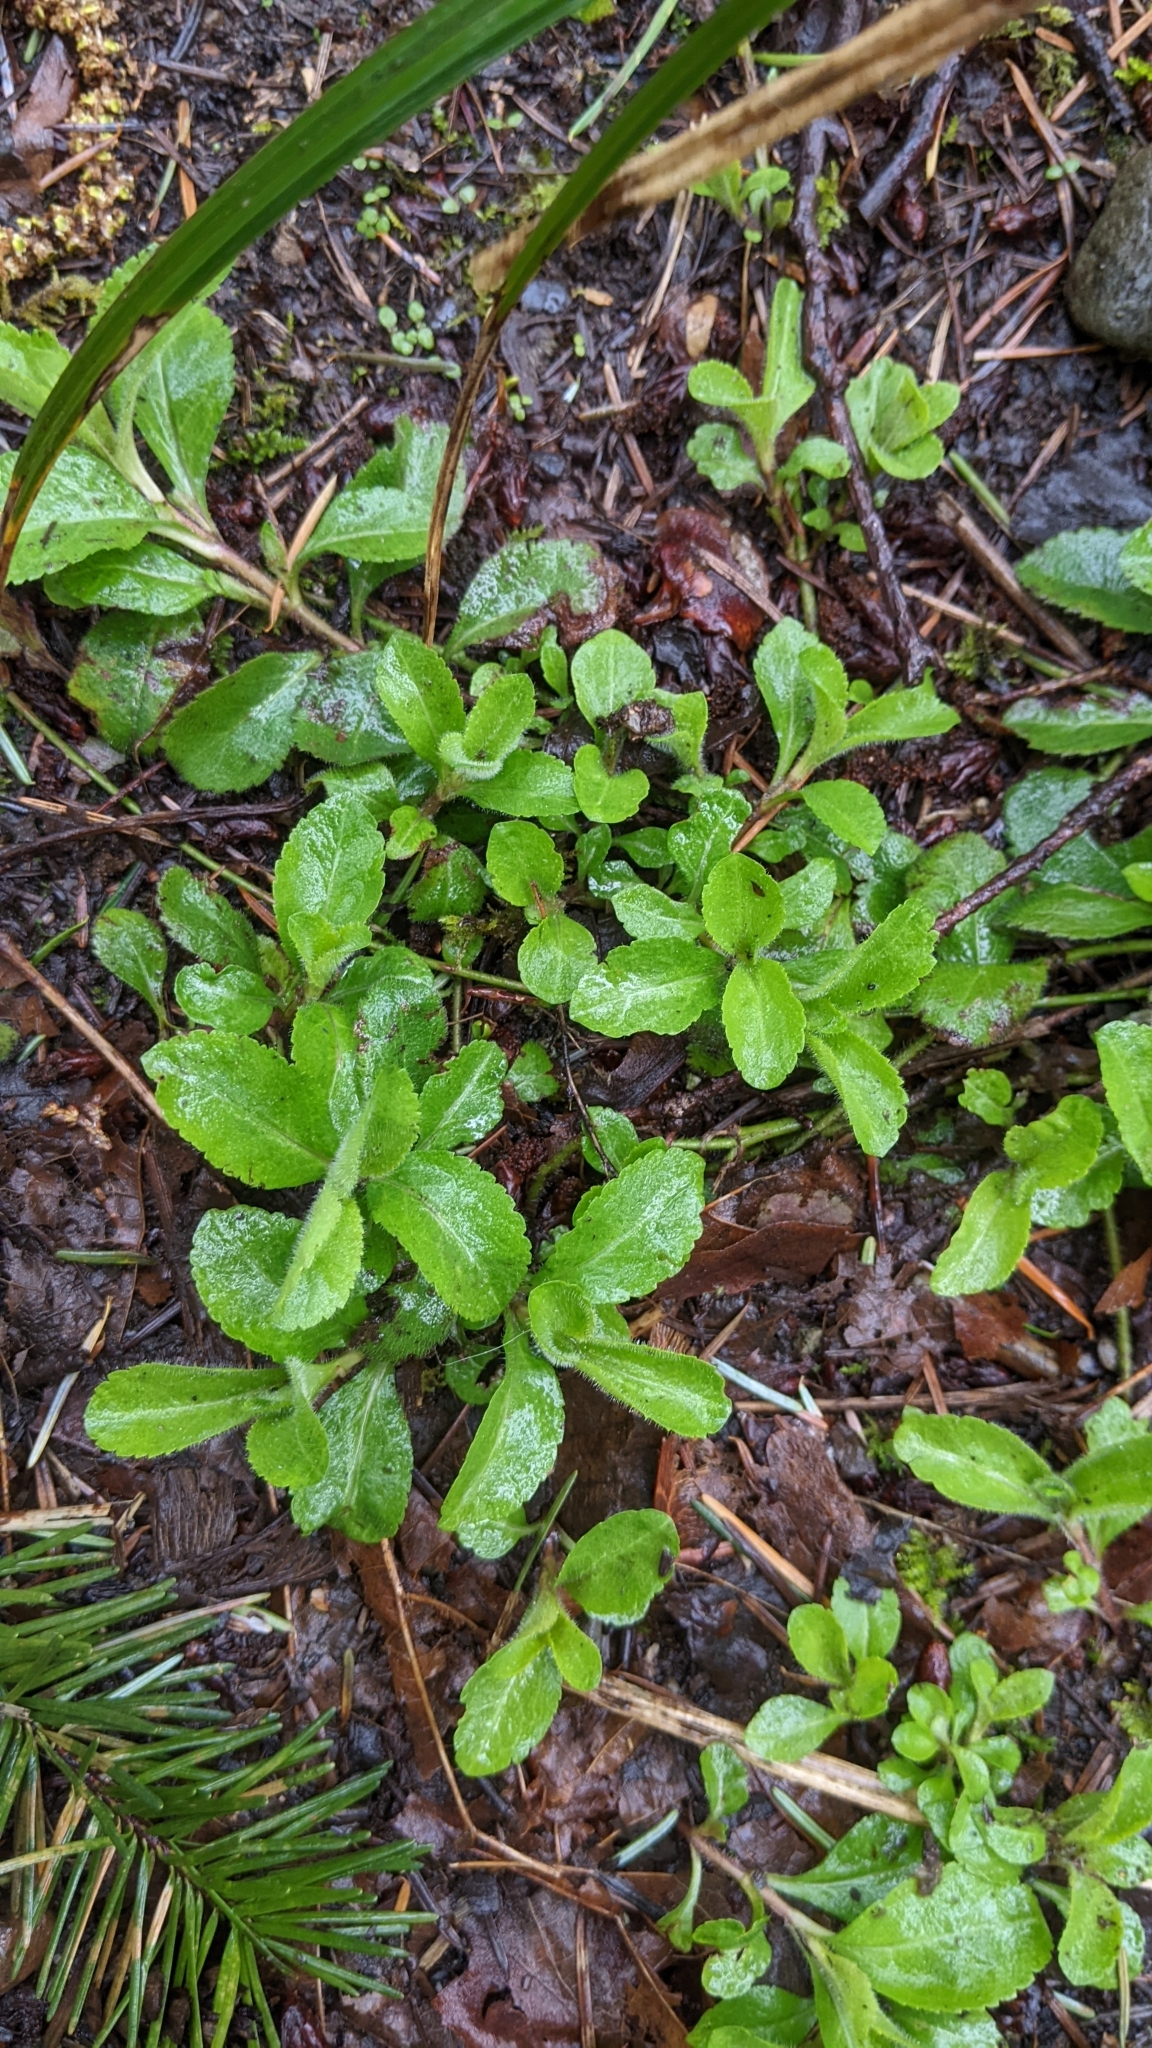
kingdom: Plantae
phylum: Tracheophyta
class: Magnoliopsida
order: Lamiales
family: Plantaginaceae
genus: Veronica
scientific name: Veronica officinalis
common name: Common speedwell
